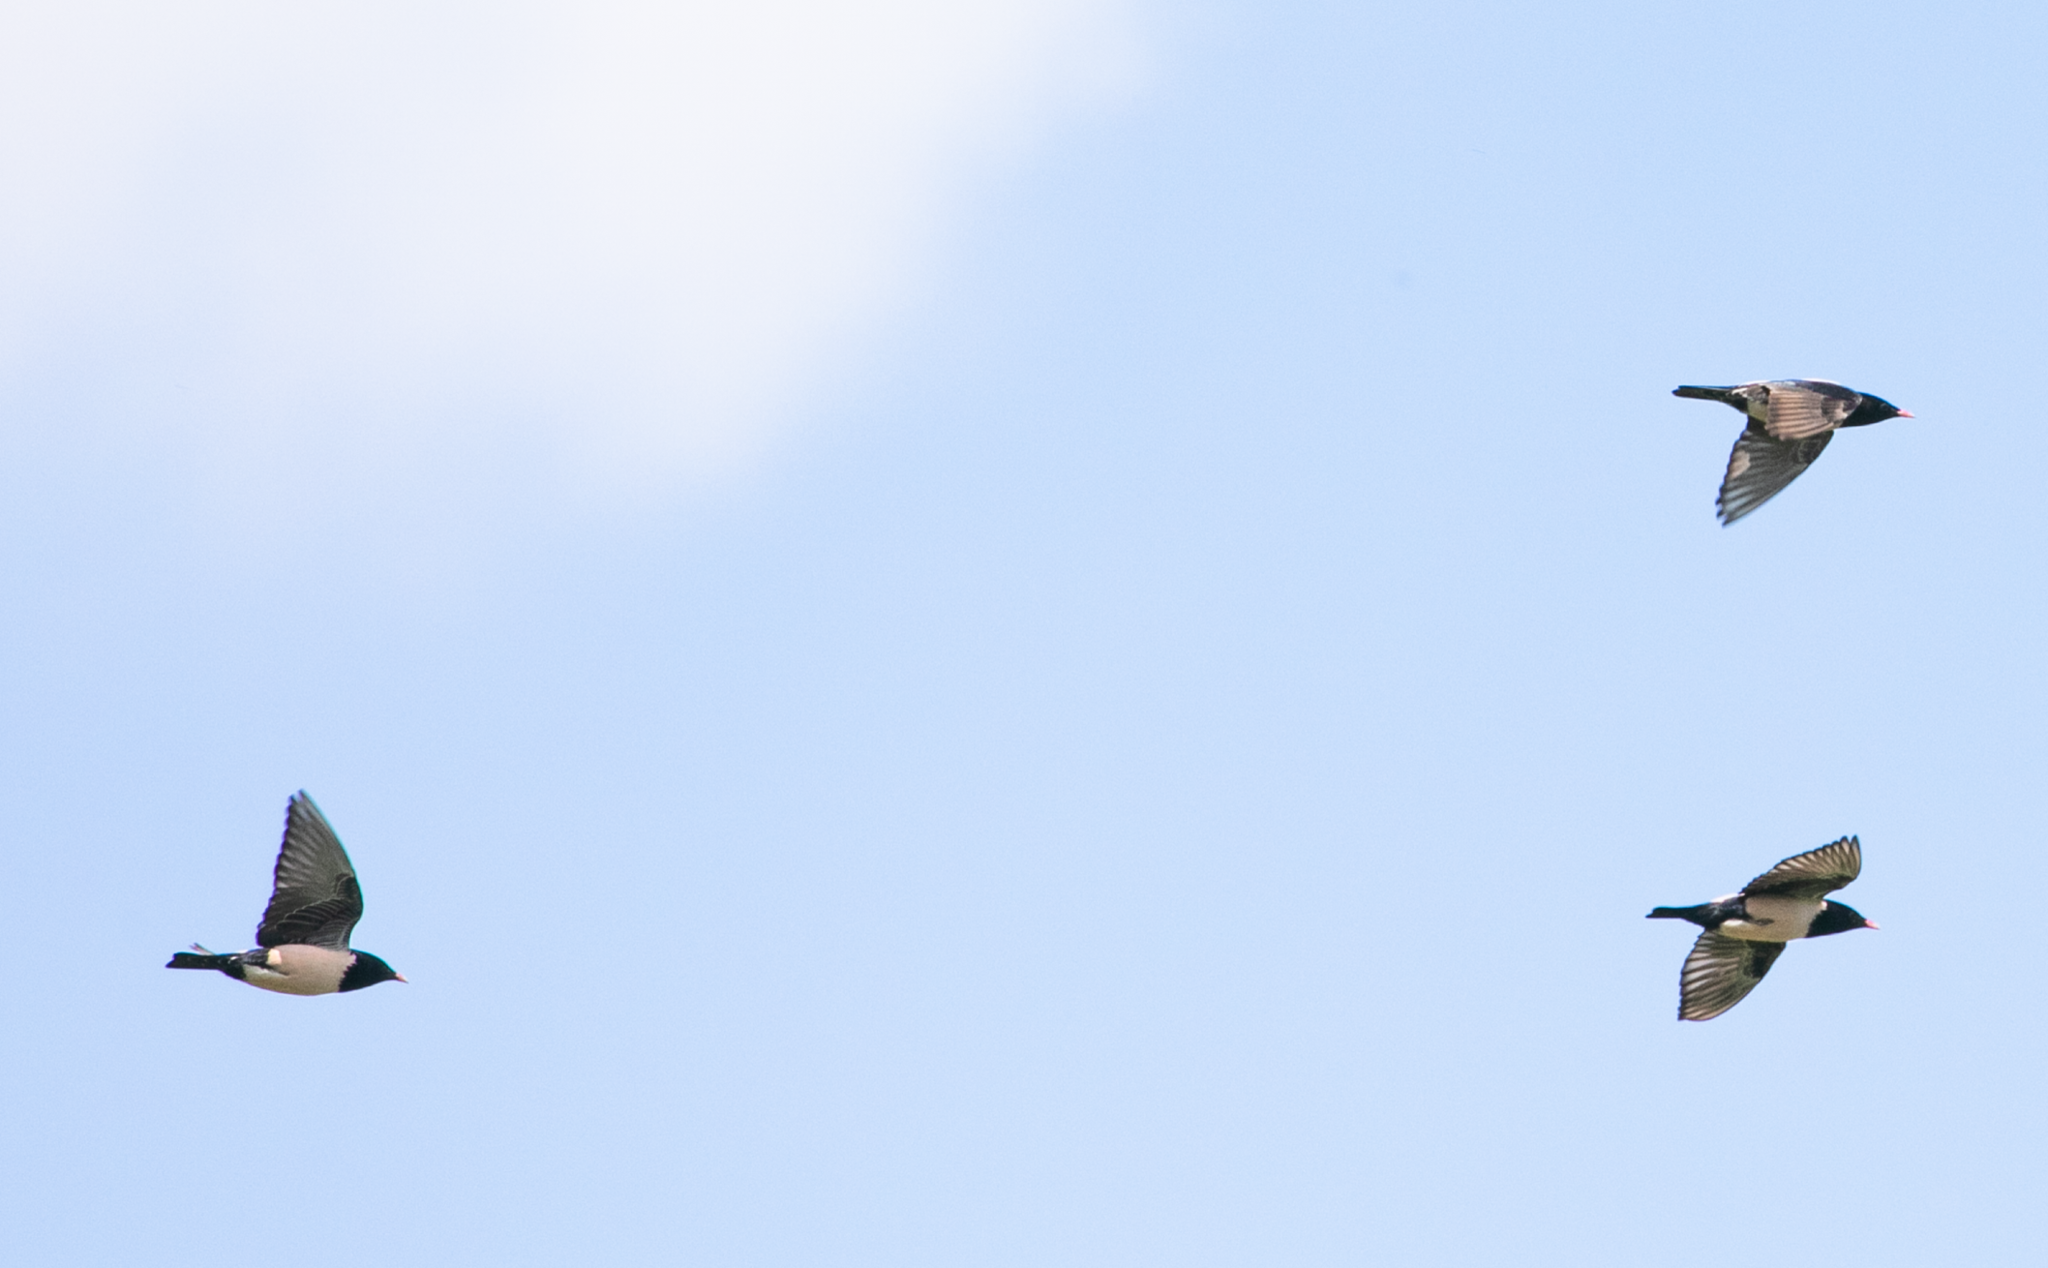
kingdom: Animalia
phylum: Chordata
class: Aves
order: Passeriformes
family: Sturnidae
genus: Pastor
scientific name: Pastor roseus
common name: Rosy starling
